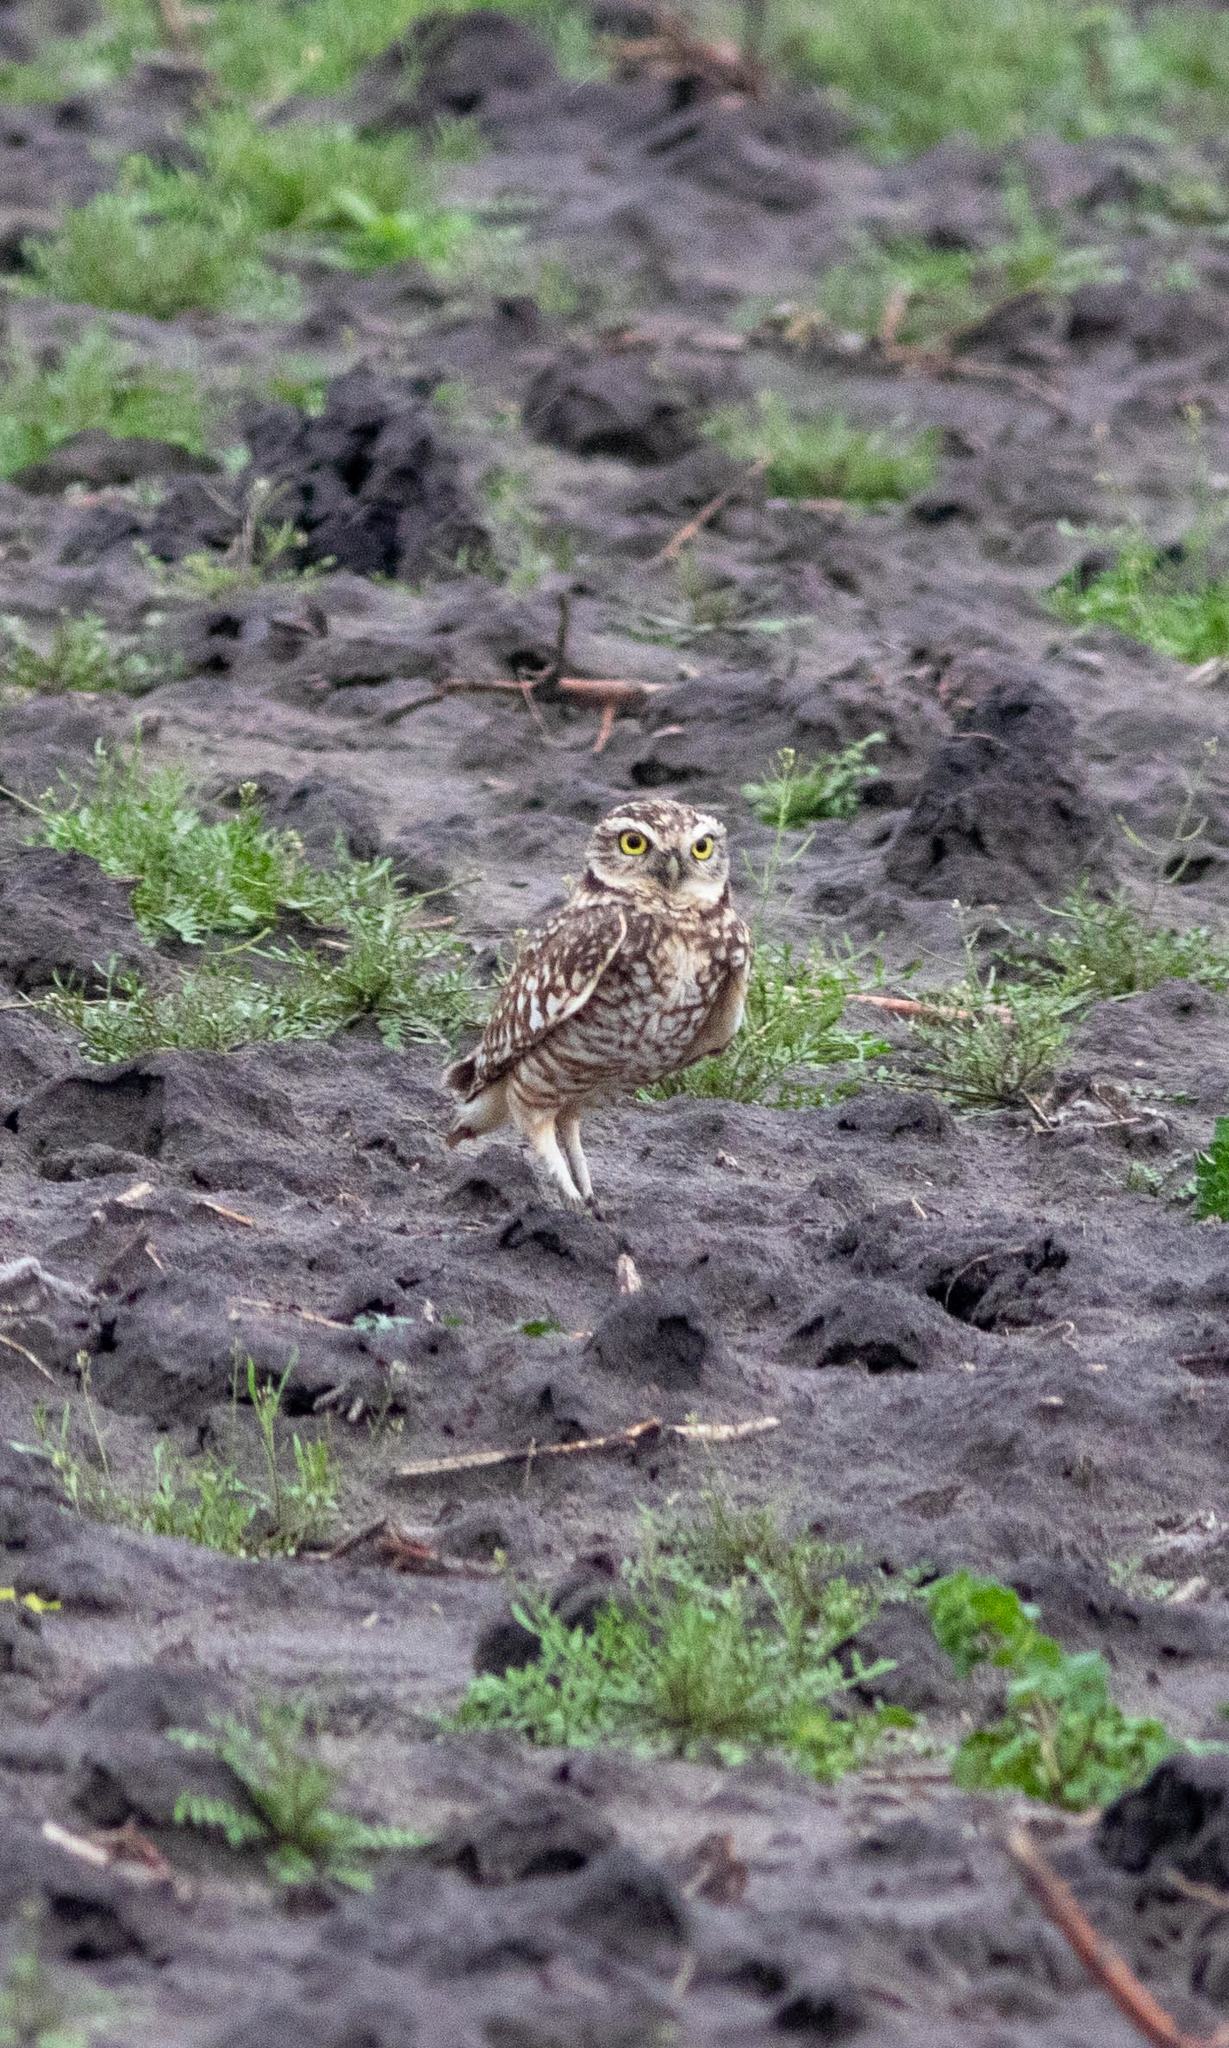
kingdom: Animalia
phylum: Chordata
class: Aves
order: Strigiformes
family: Strigidae
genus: Athene
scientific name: Athene cunicularia
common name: Burrowing owl
